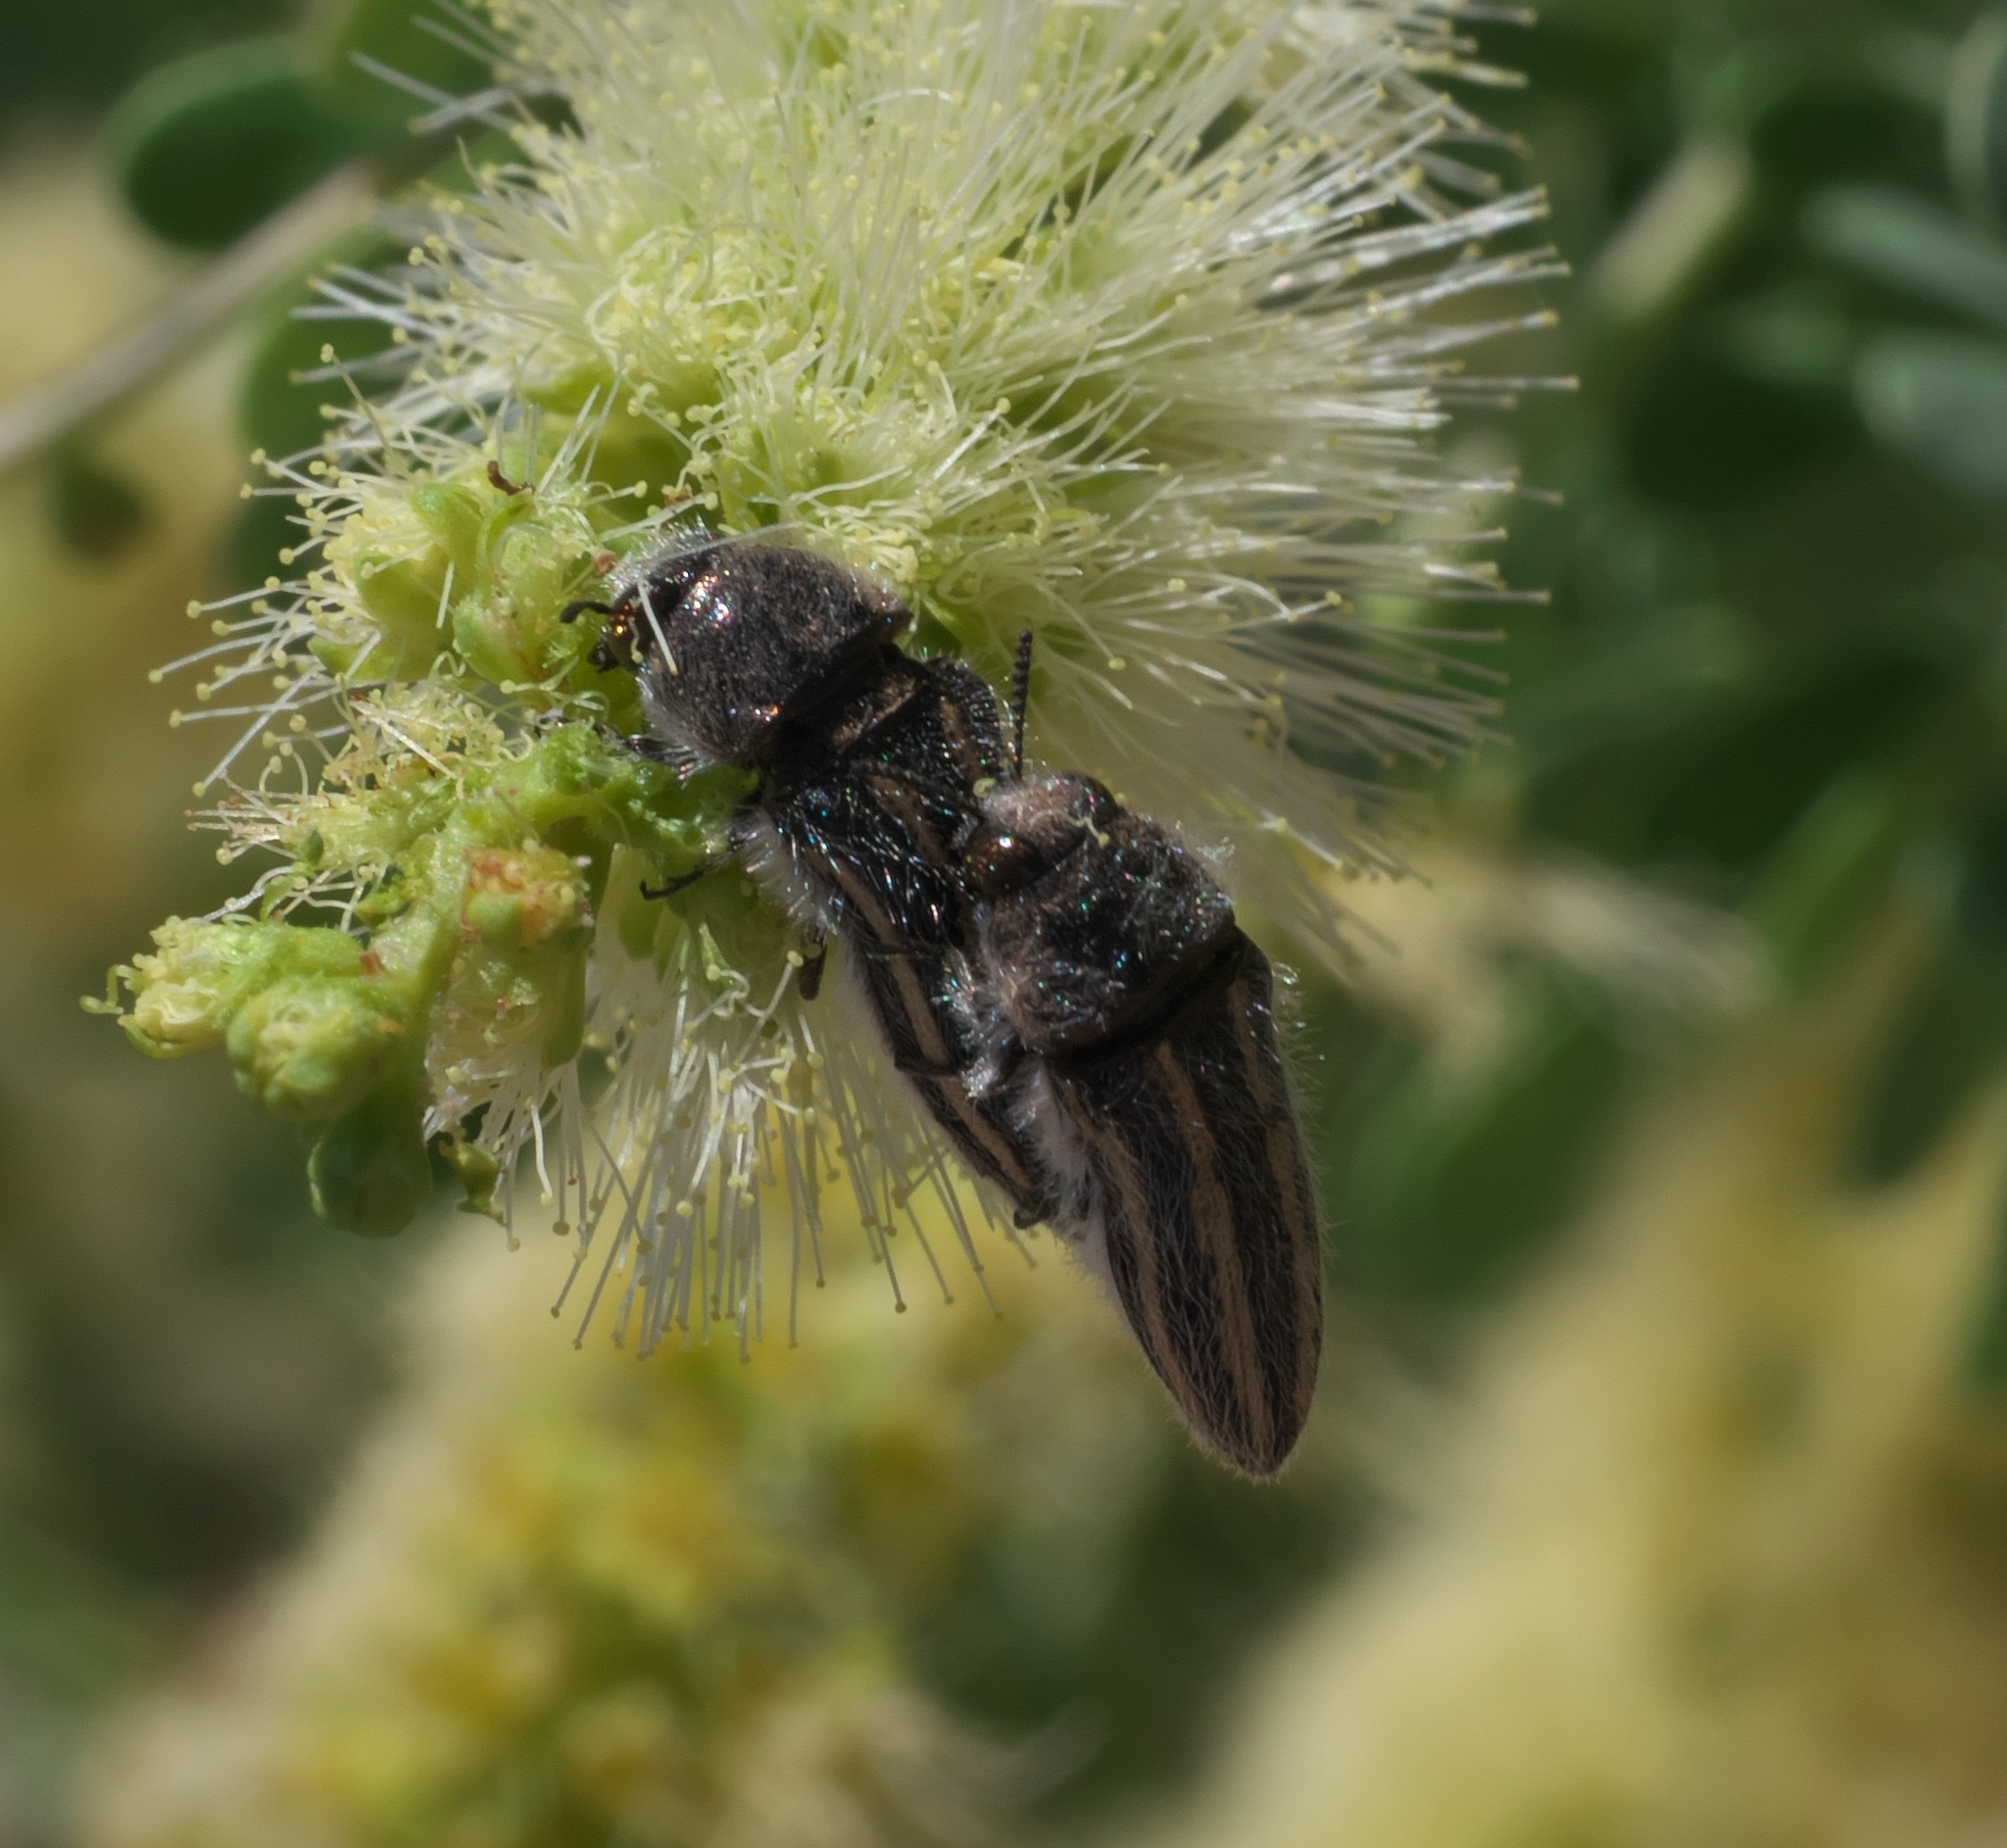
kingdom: Animalia
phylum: Arthropoda
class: Insecta
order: Coleoptera
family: Buprestidae
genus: Acmaeodera
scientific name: Acmaeodera pubiventris
